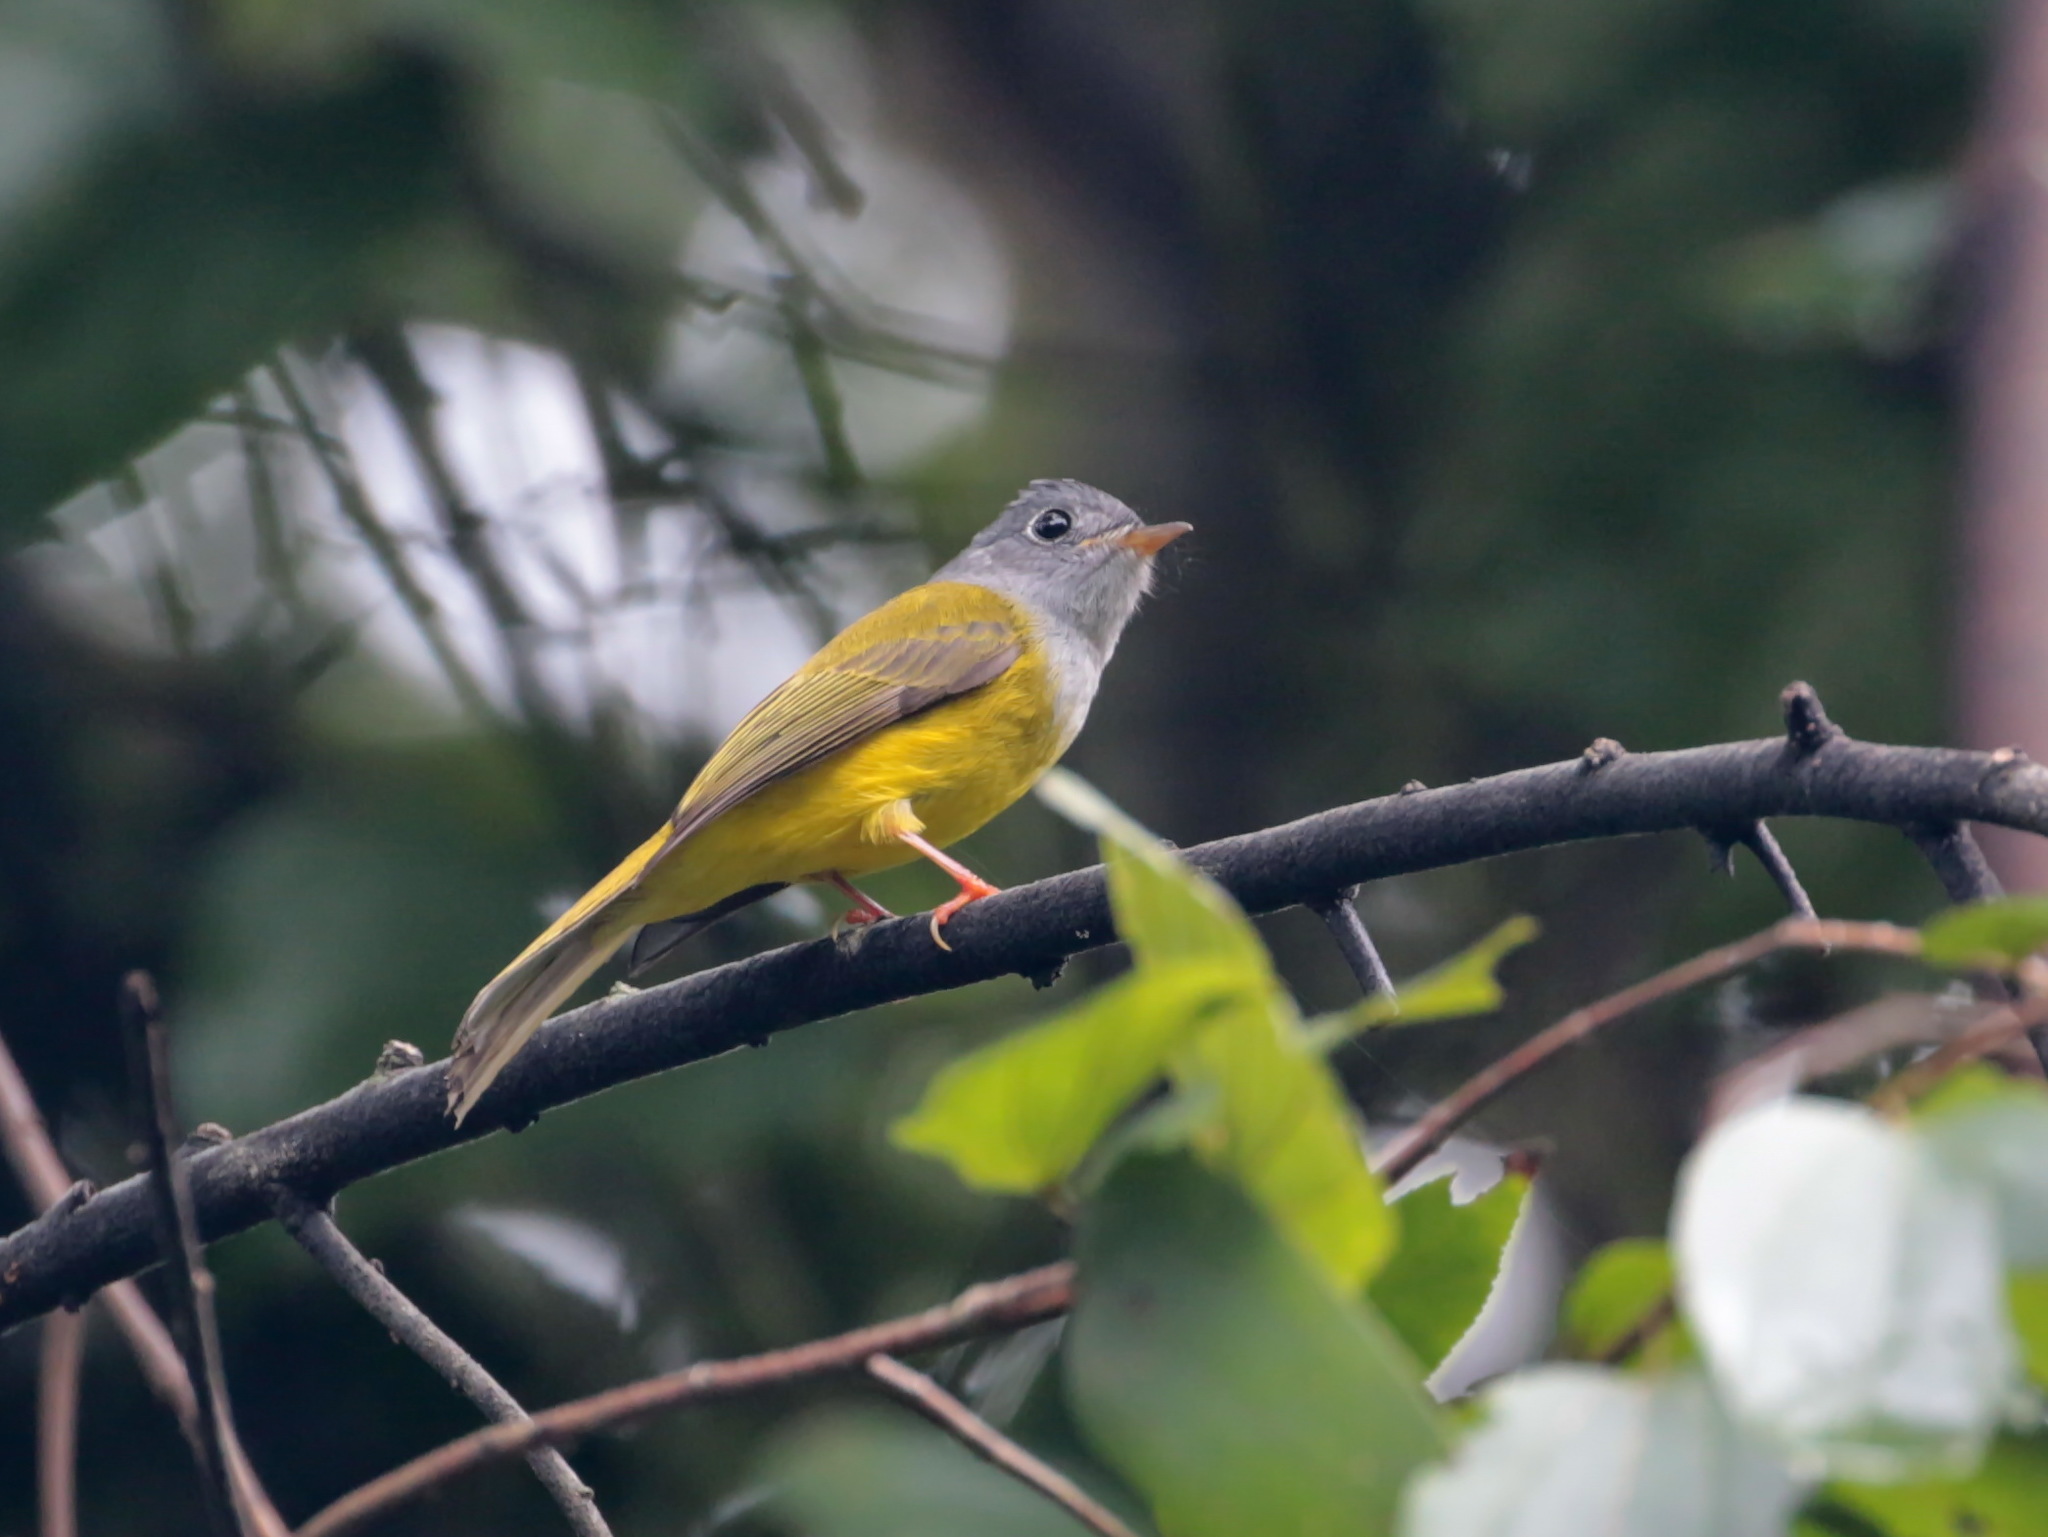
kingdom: Animalia
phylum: Chordata
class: Aves
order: Passeriformes
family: Stenostiridae
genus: Culicicapa
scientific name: Culicicapa ceylonensis
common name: Grey-headed canary-flycatcher
